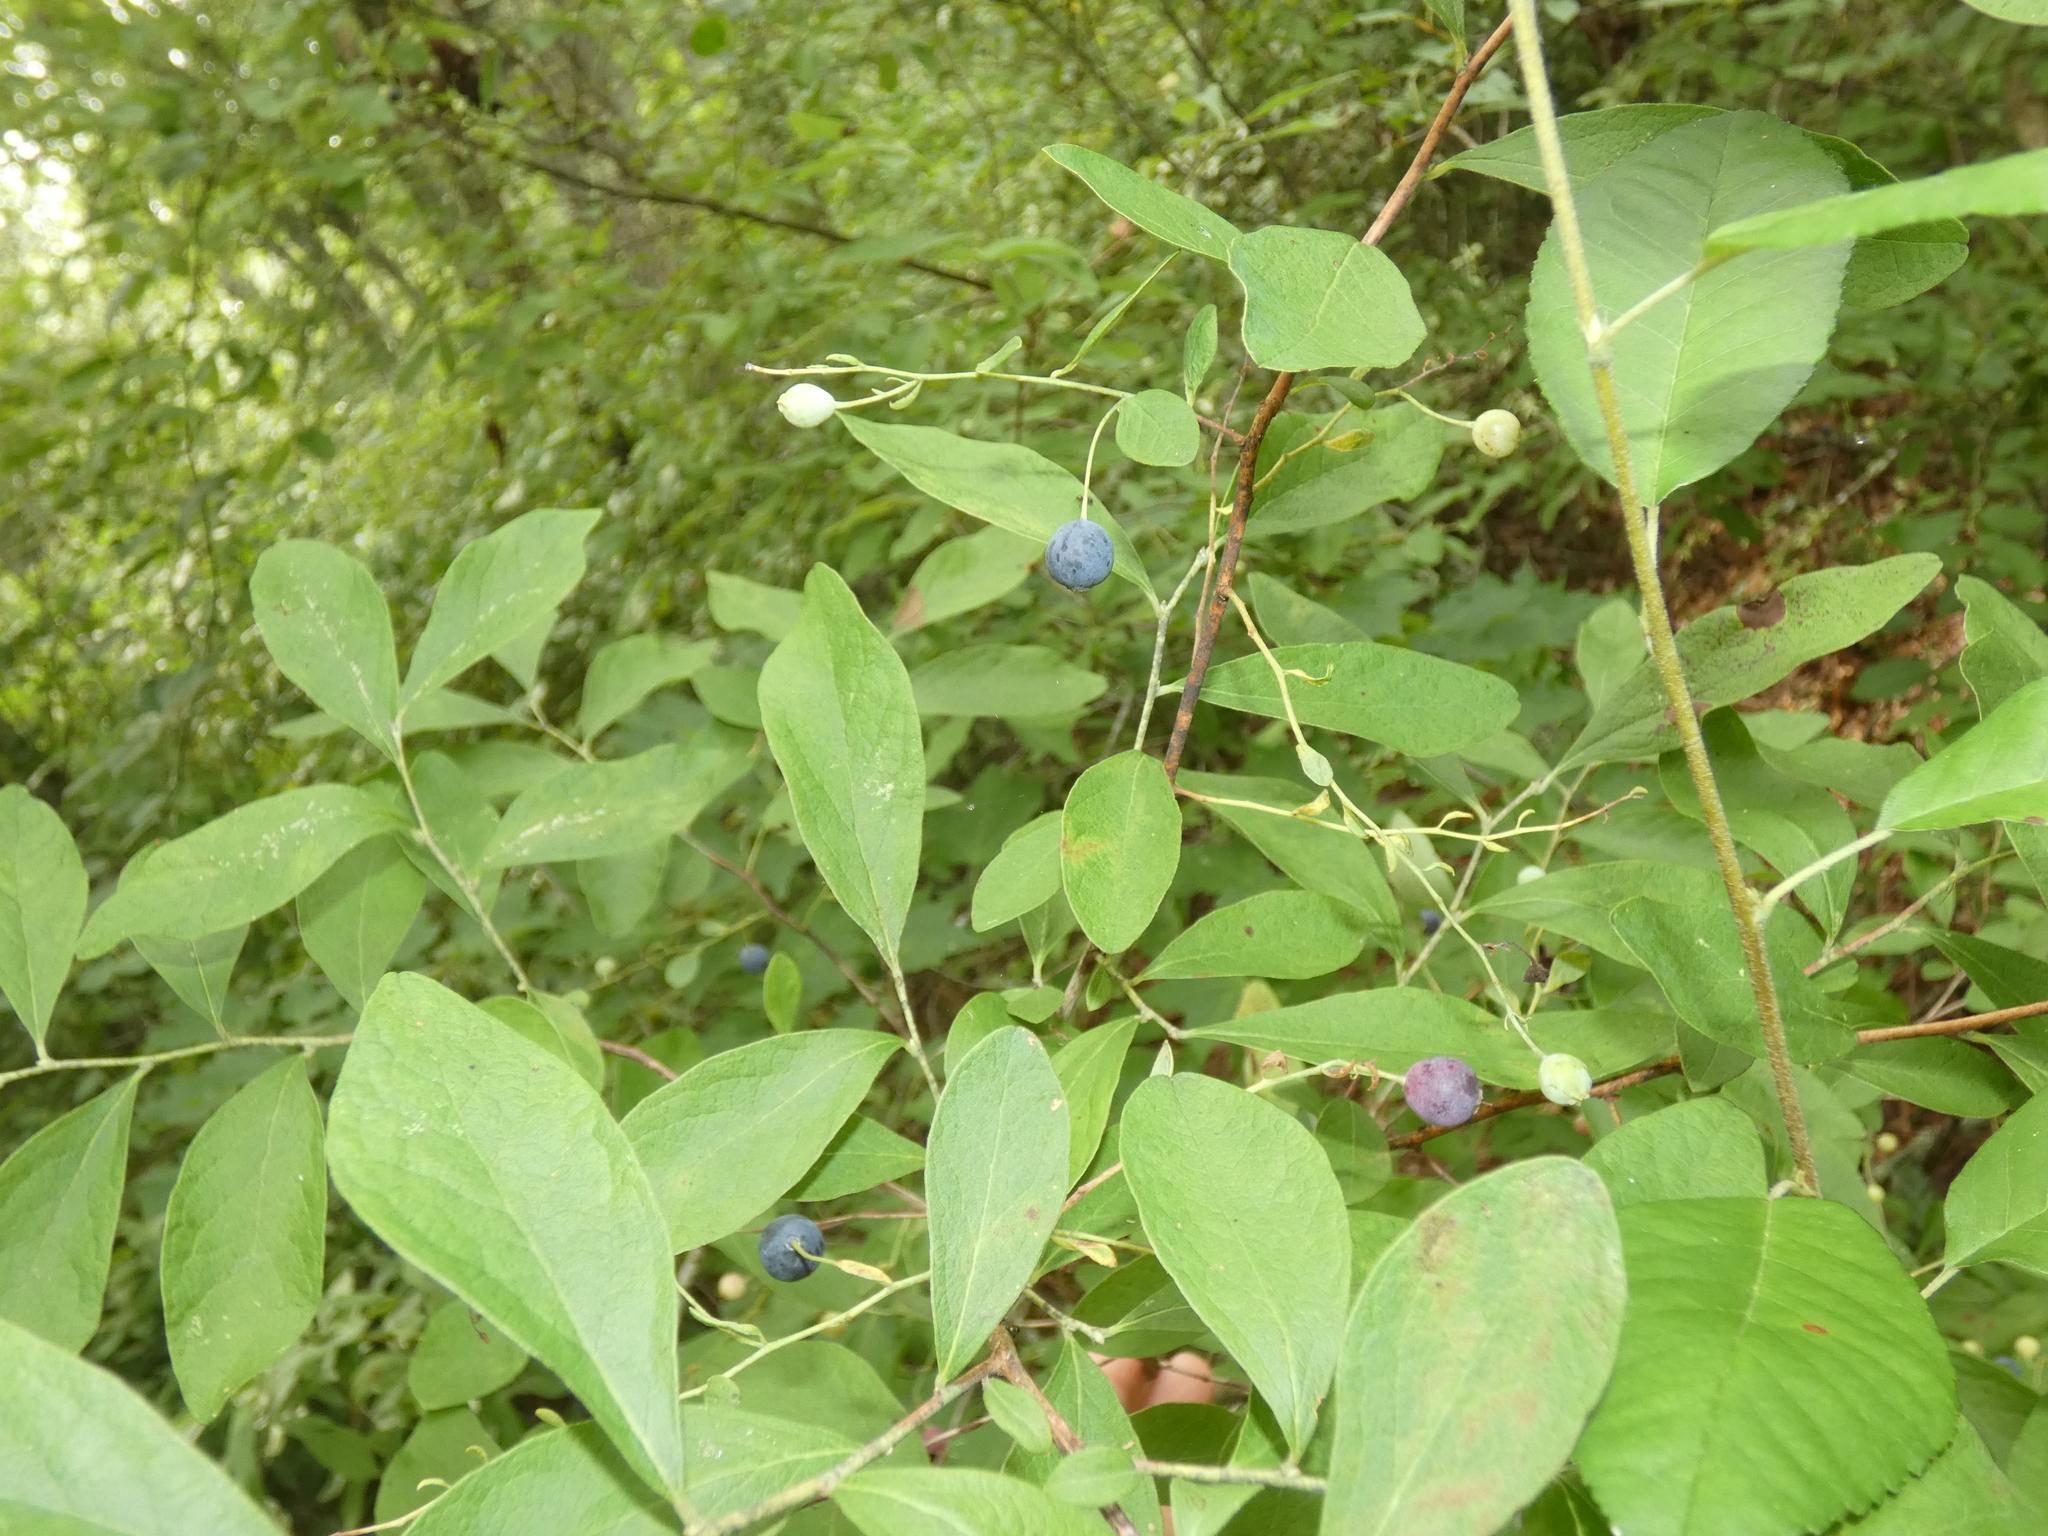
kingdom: Plantae
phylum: Tracheophyta
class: Magnoliopsida
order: Ericales
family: Ericaceae
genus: Gaylussacia
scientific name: Gaylussacia frondosa
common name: Dangleberry
